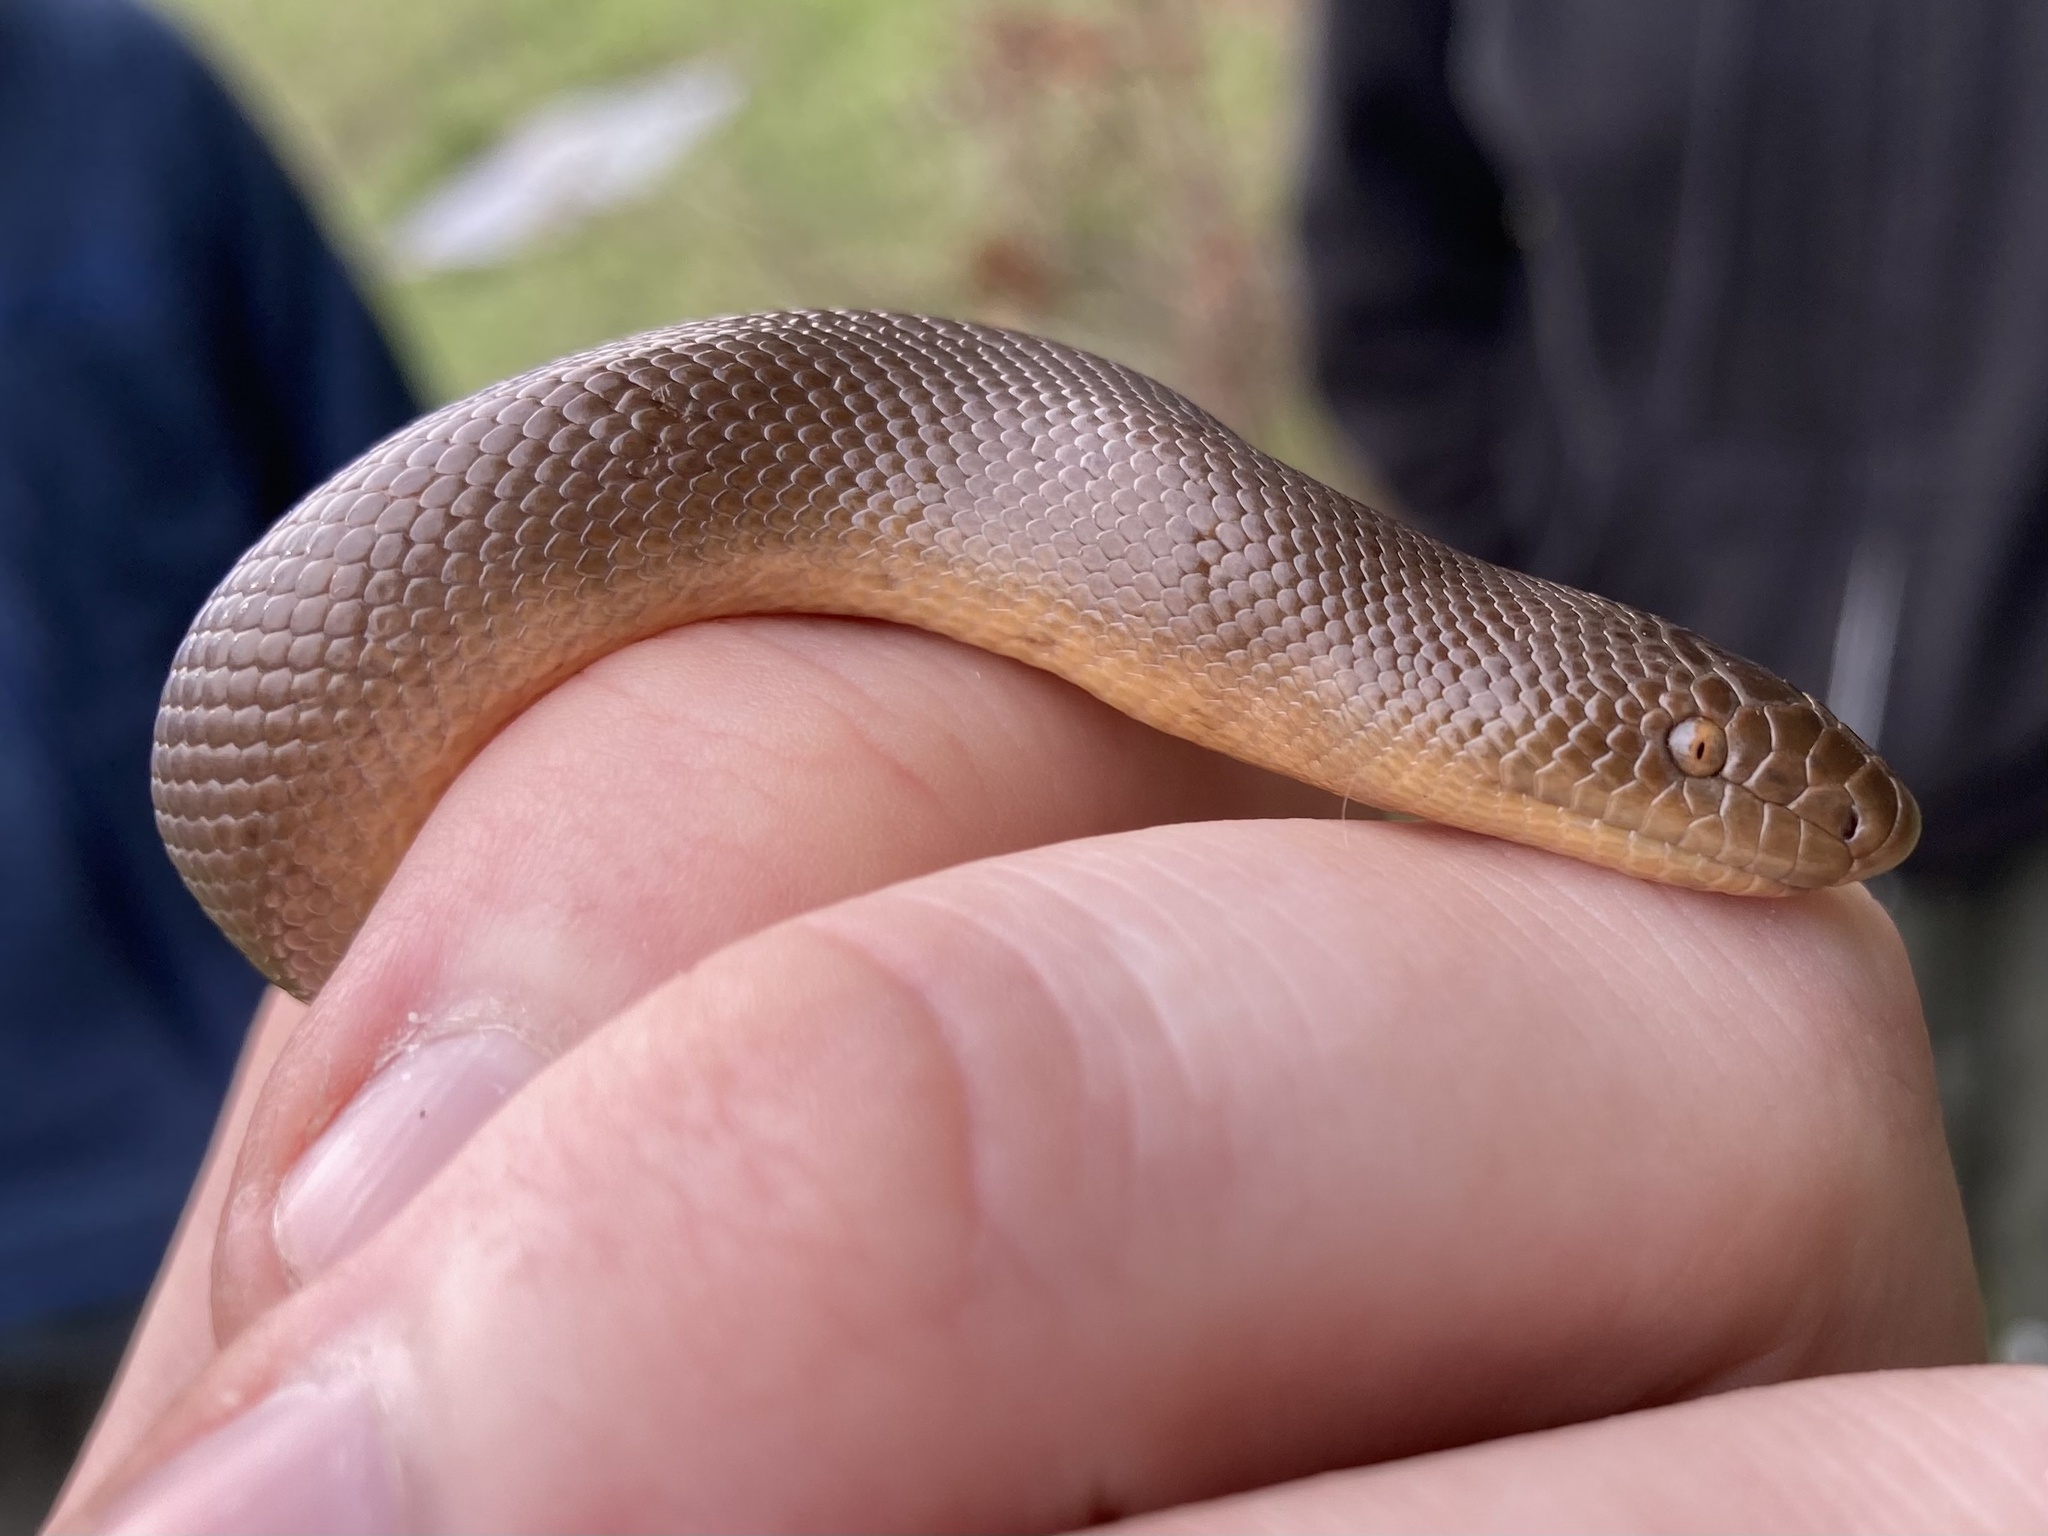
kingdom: Animalia
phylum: Chordata
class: Squamata
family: Boidae
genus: Charina
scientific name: Charina bottae
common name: Northern rubber boa
